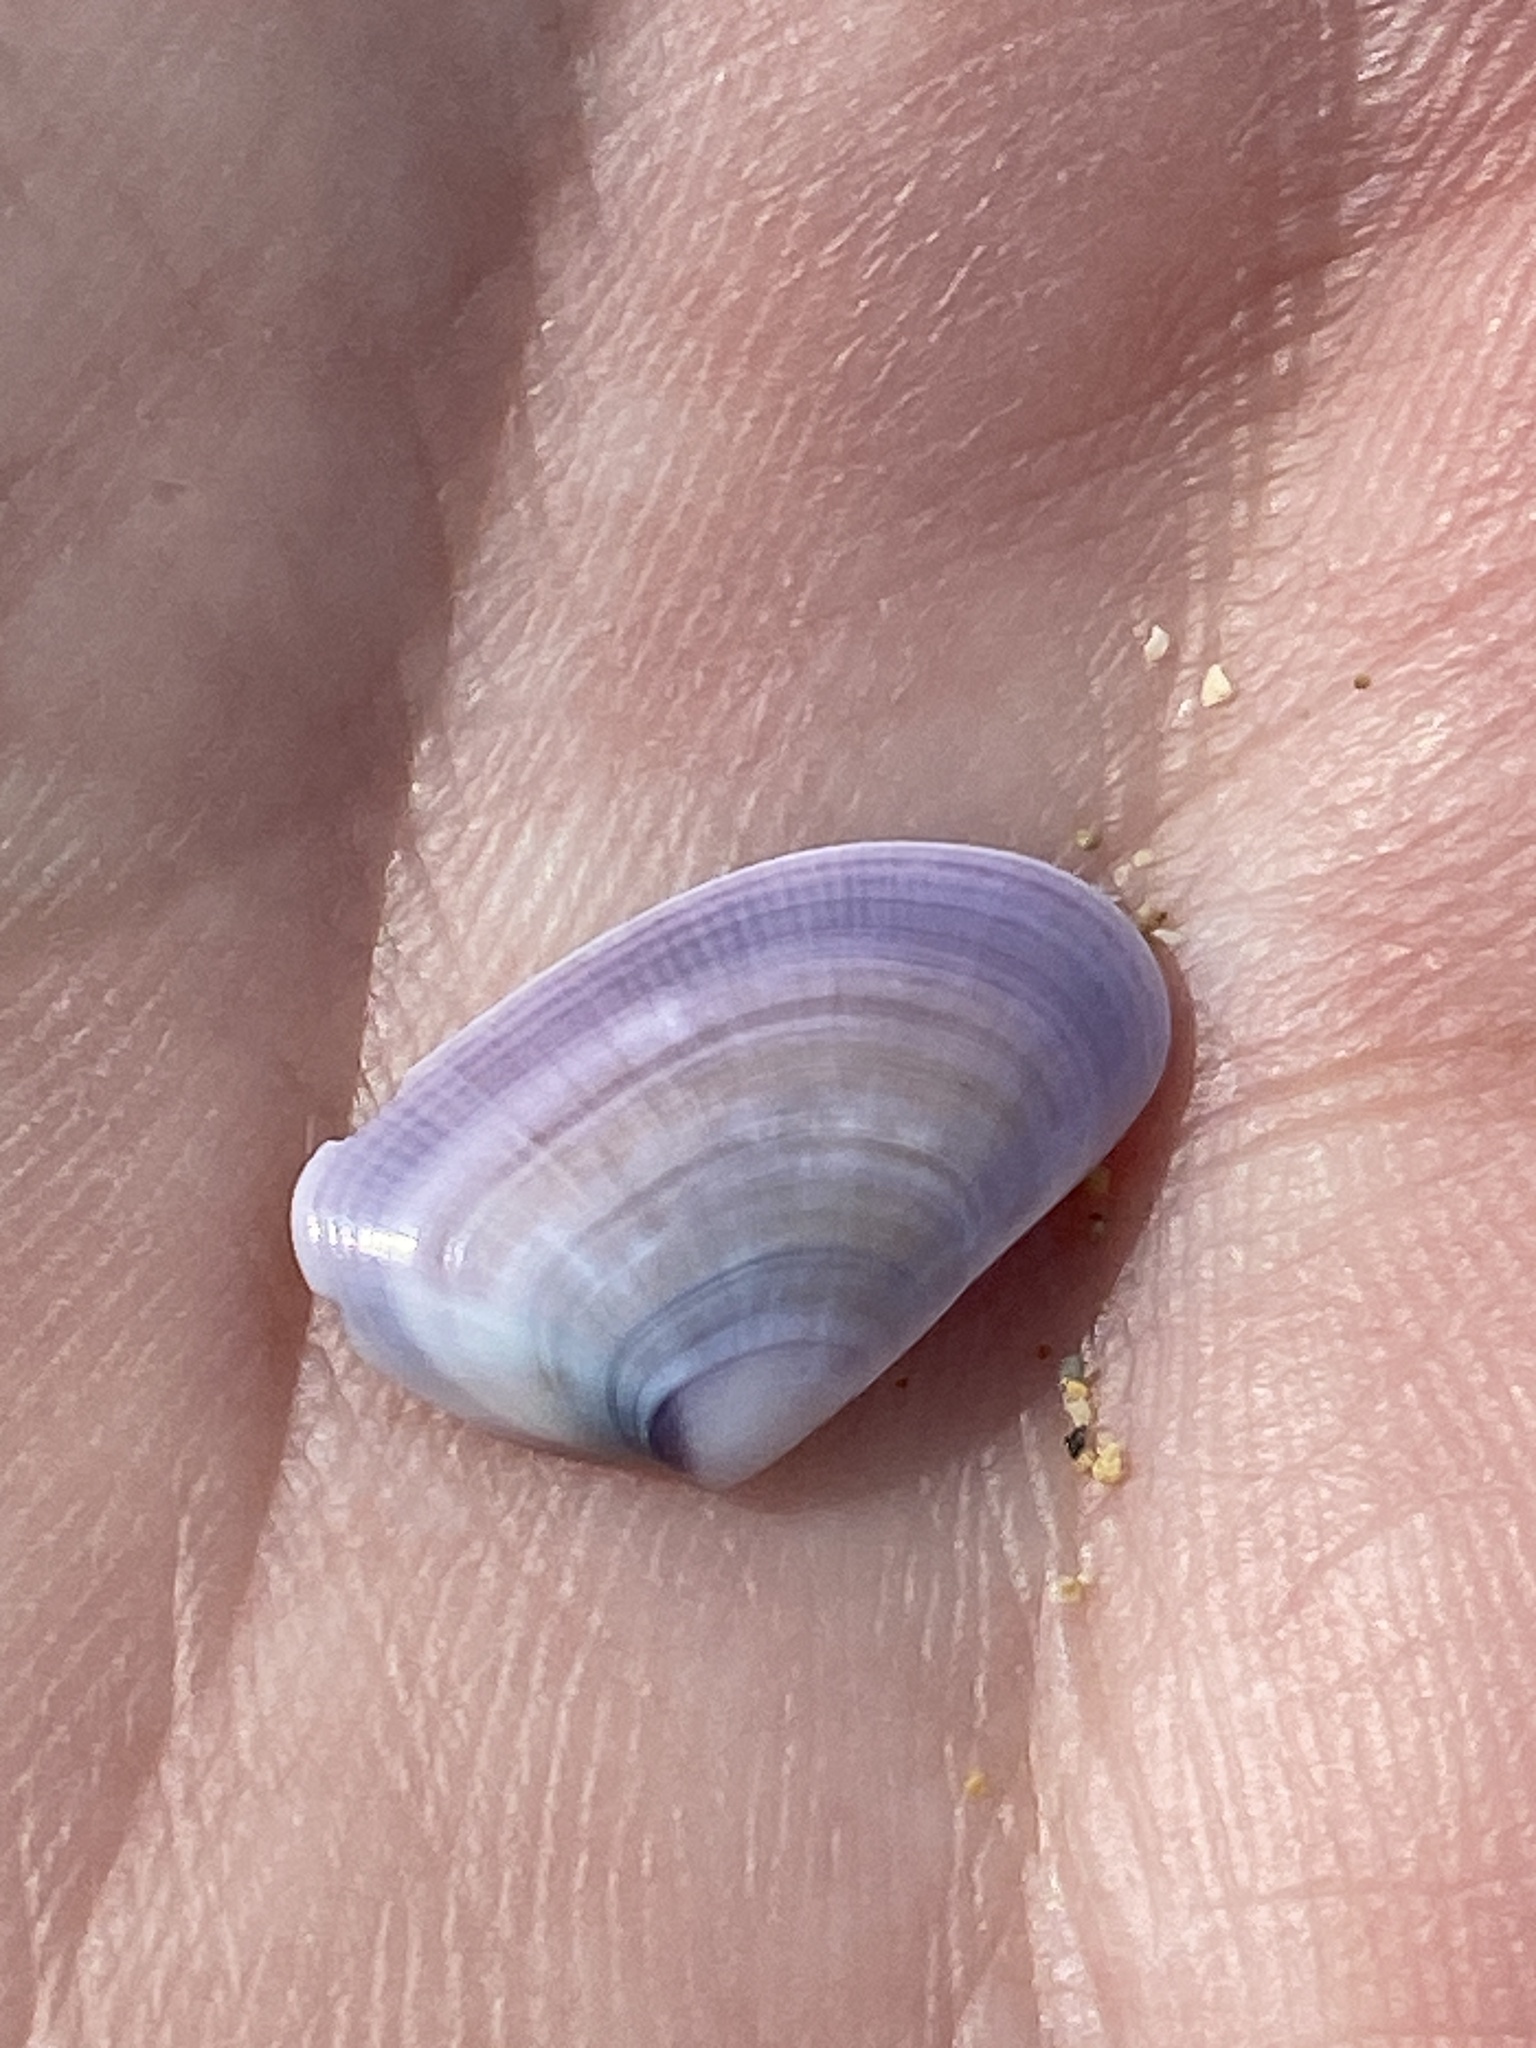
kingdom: Animalia
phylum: Mollusca
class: Bivalvia
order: Cardiida
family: Donacidae
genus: Donax
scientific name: Donax trunculus
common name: Truncate donax
